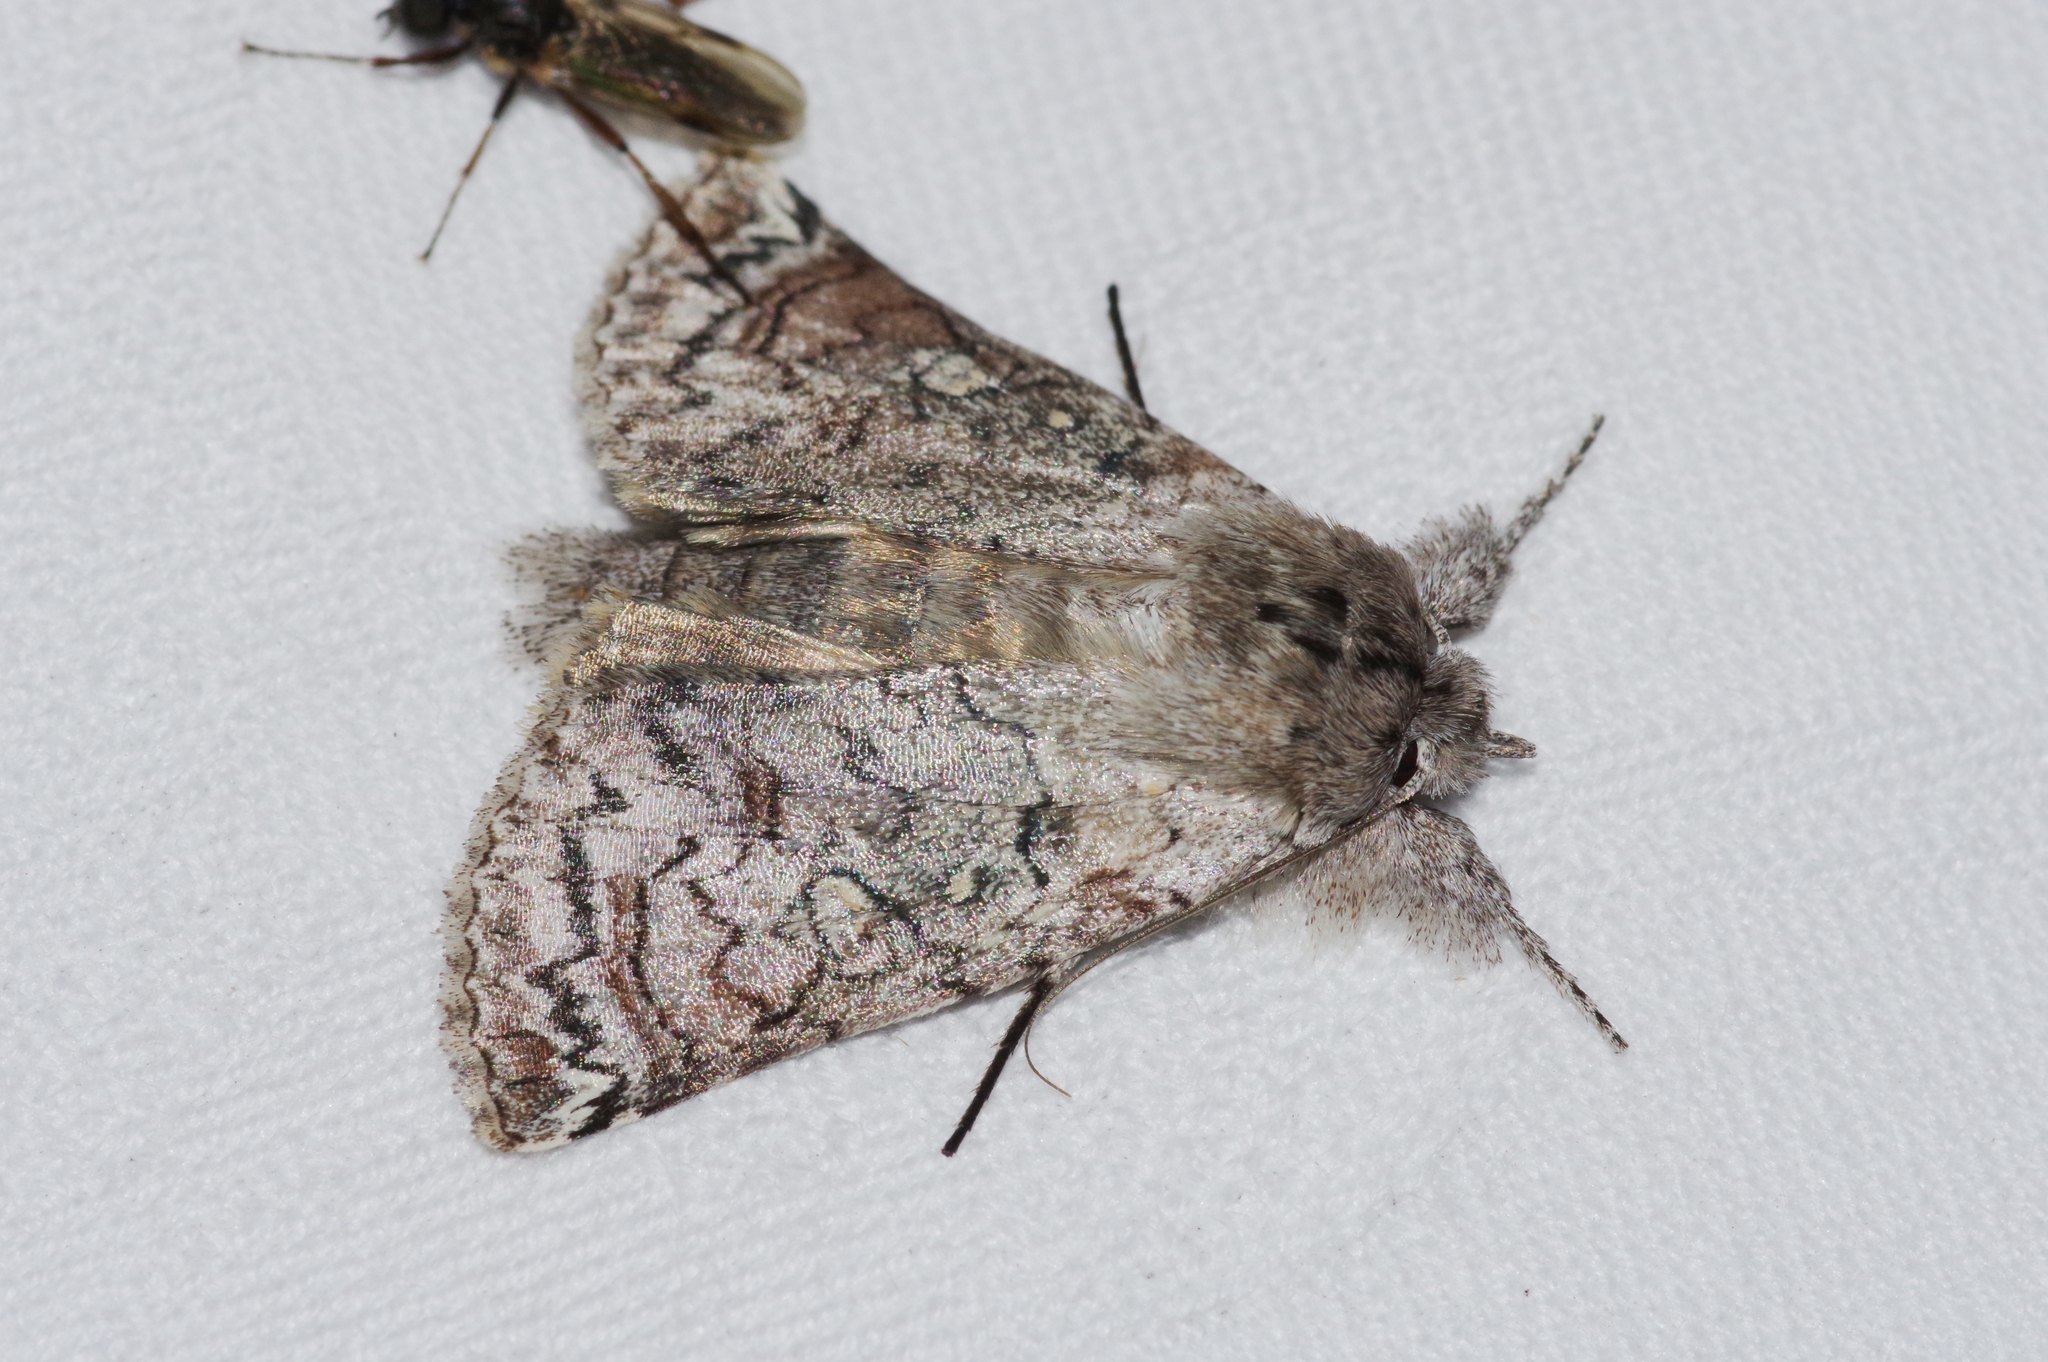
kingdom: Animalia
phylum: Arthropoda
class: Insecta
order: Lepidoptera
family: Nolidae
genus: Macrobarasa
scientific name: Macrobarasa xantholopha
